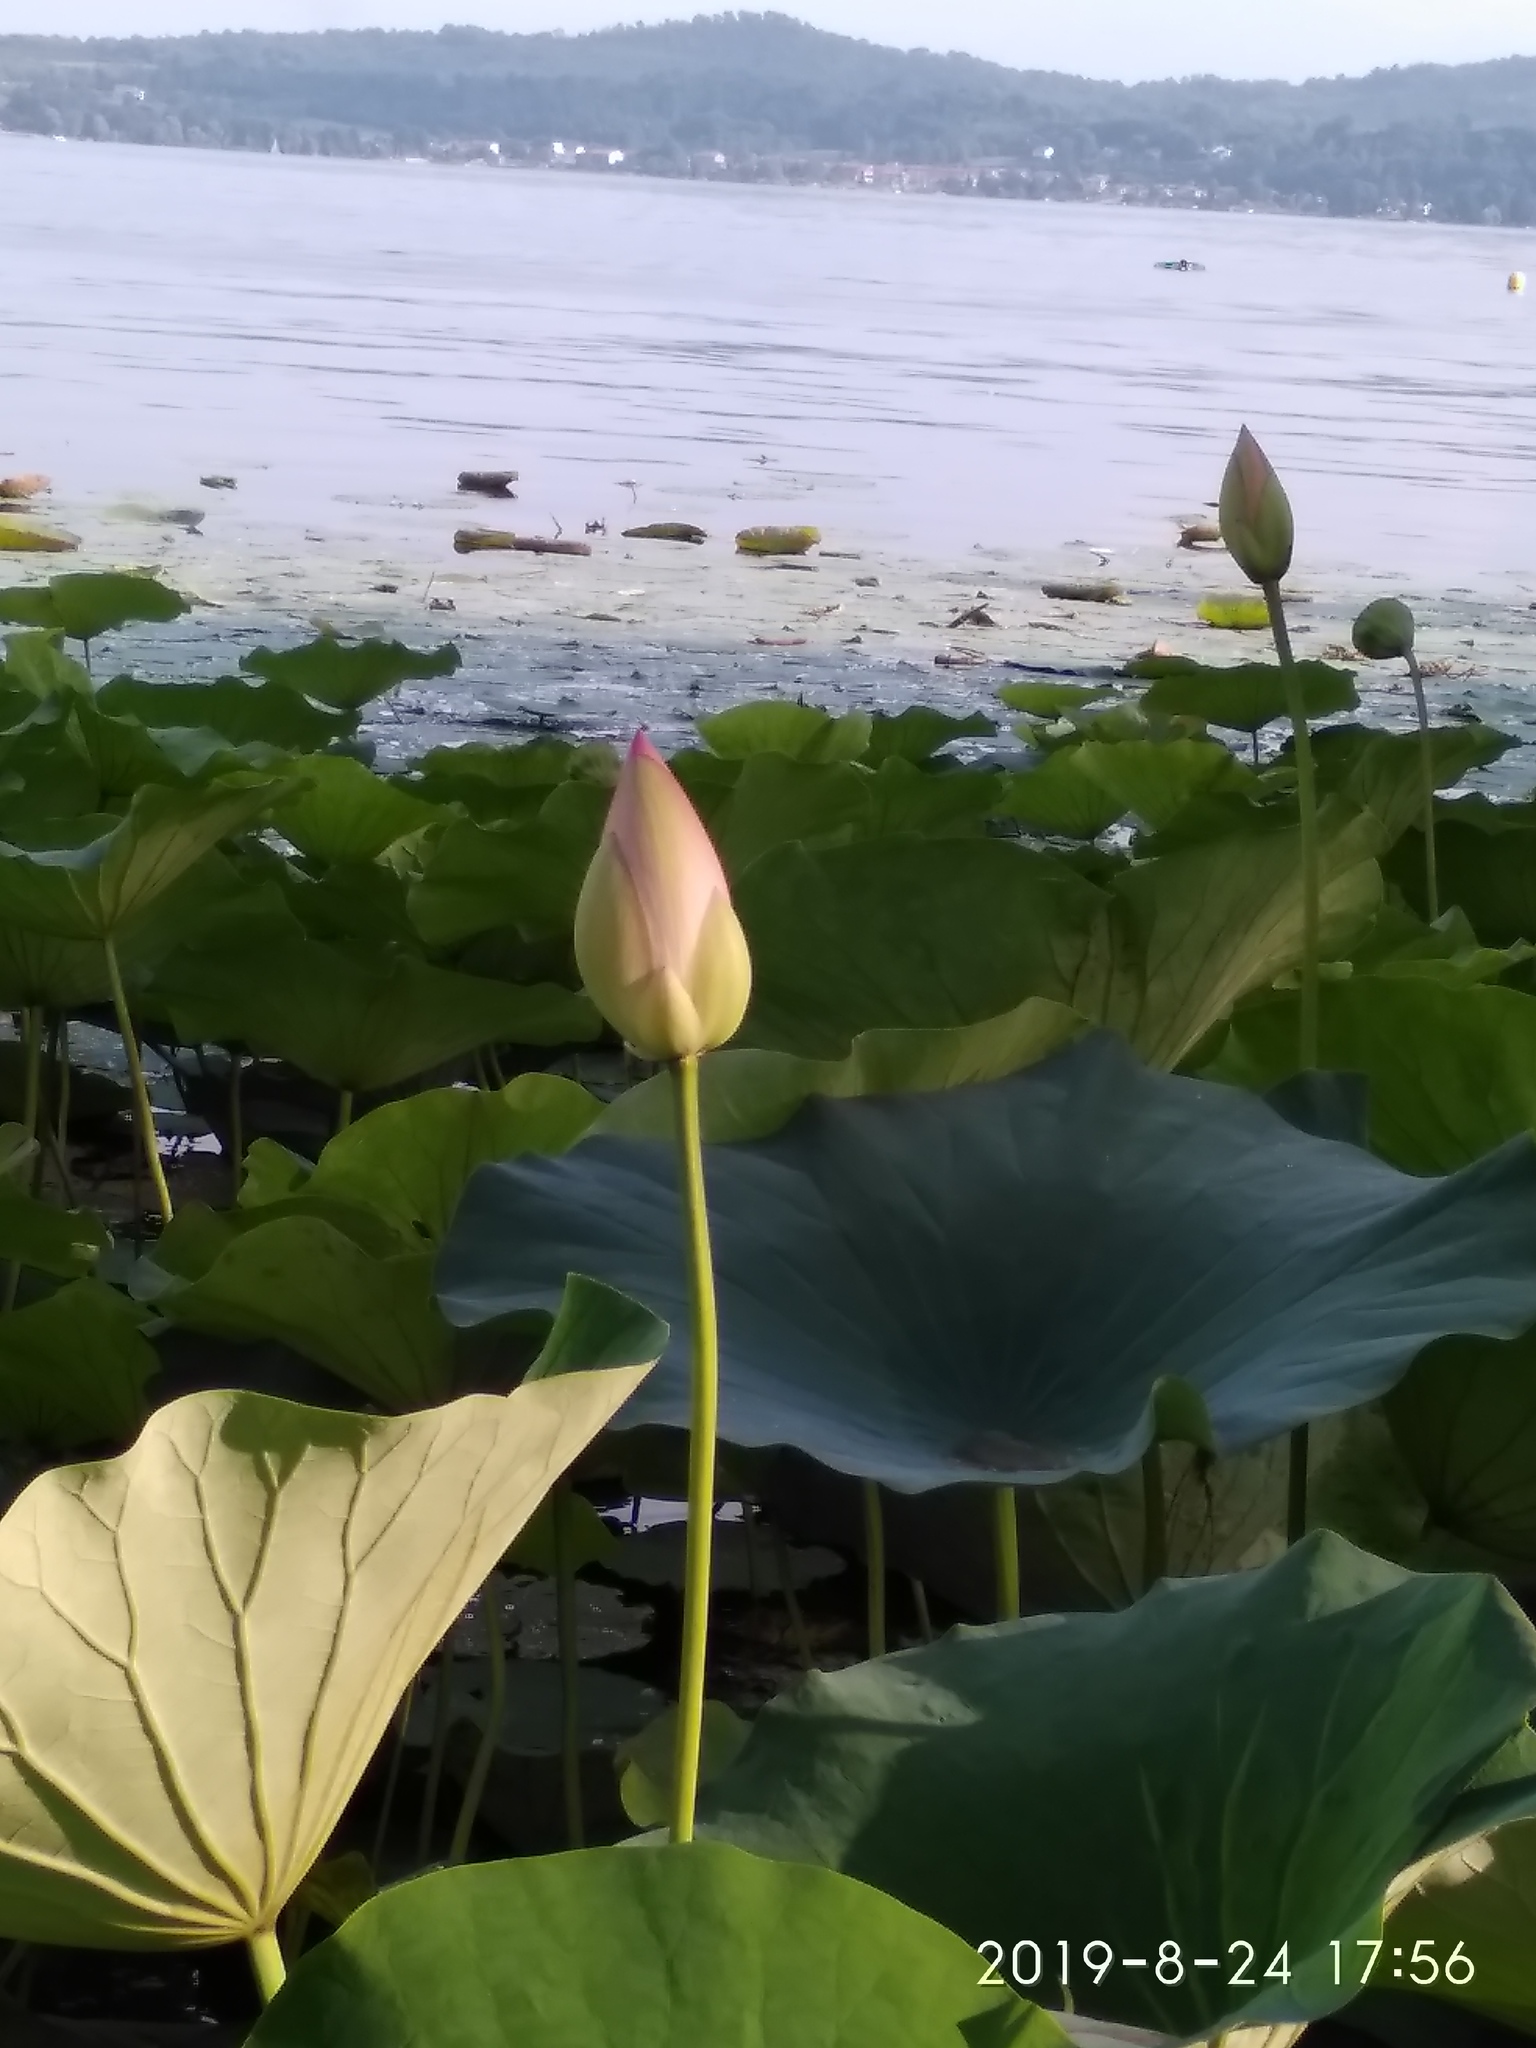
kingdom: Plantae
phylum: Tracheophyta
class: Magnoliopsida
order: Proteales
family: Nelumbonaceae
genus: Nelumbo
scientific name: Nelumbo nucifera
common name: Sacred lotus
